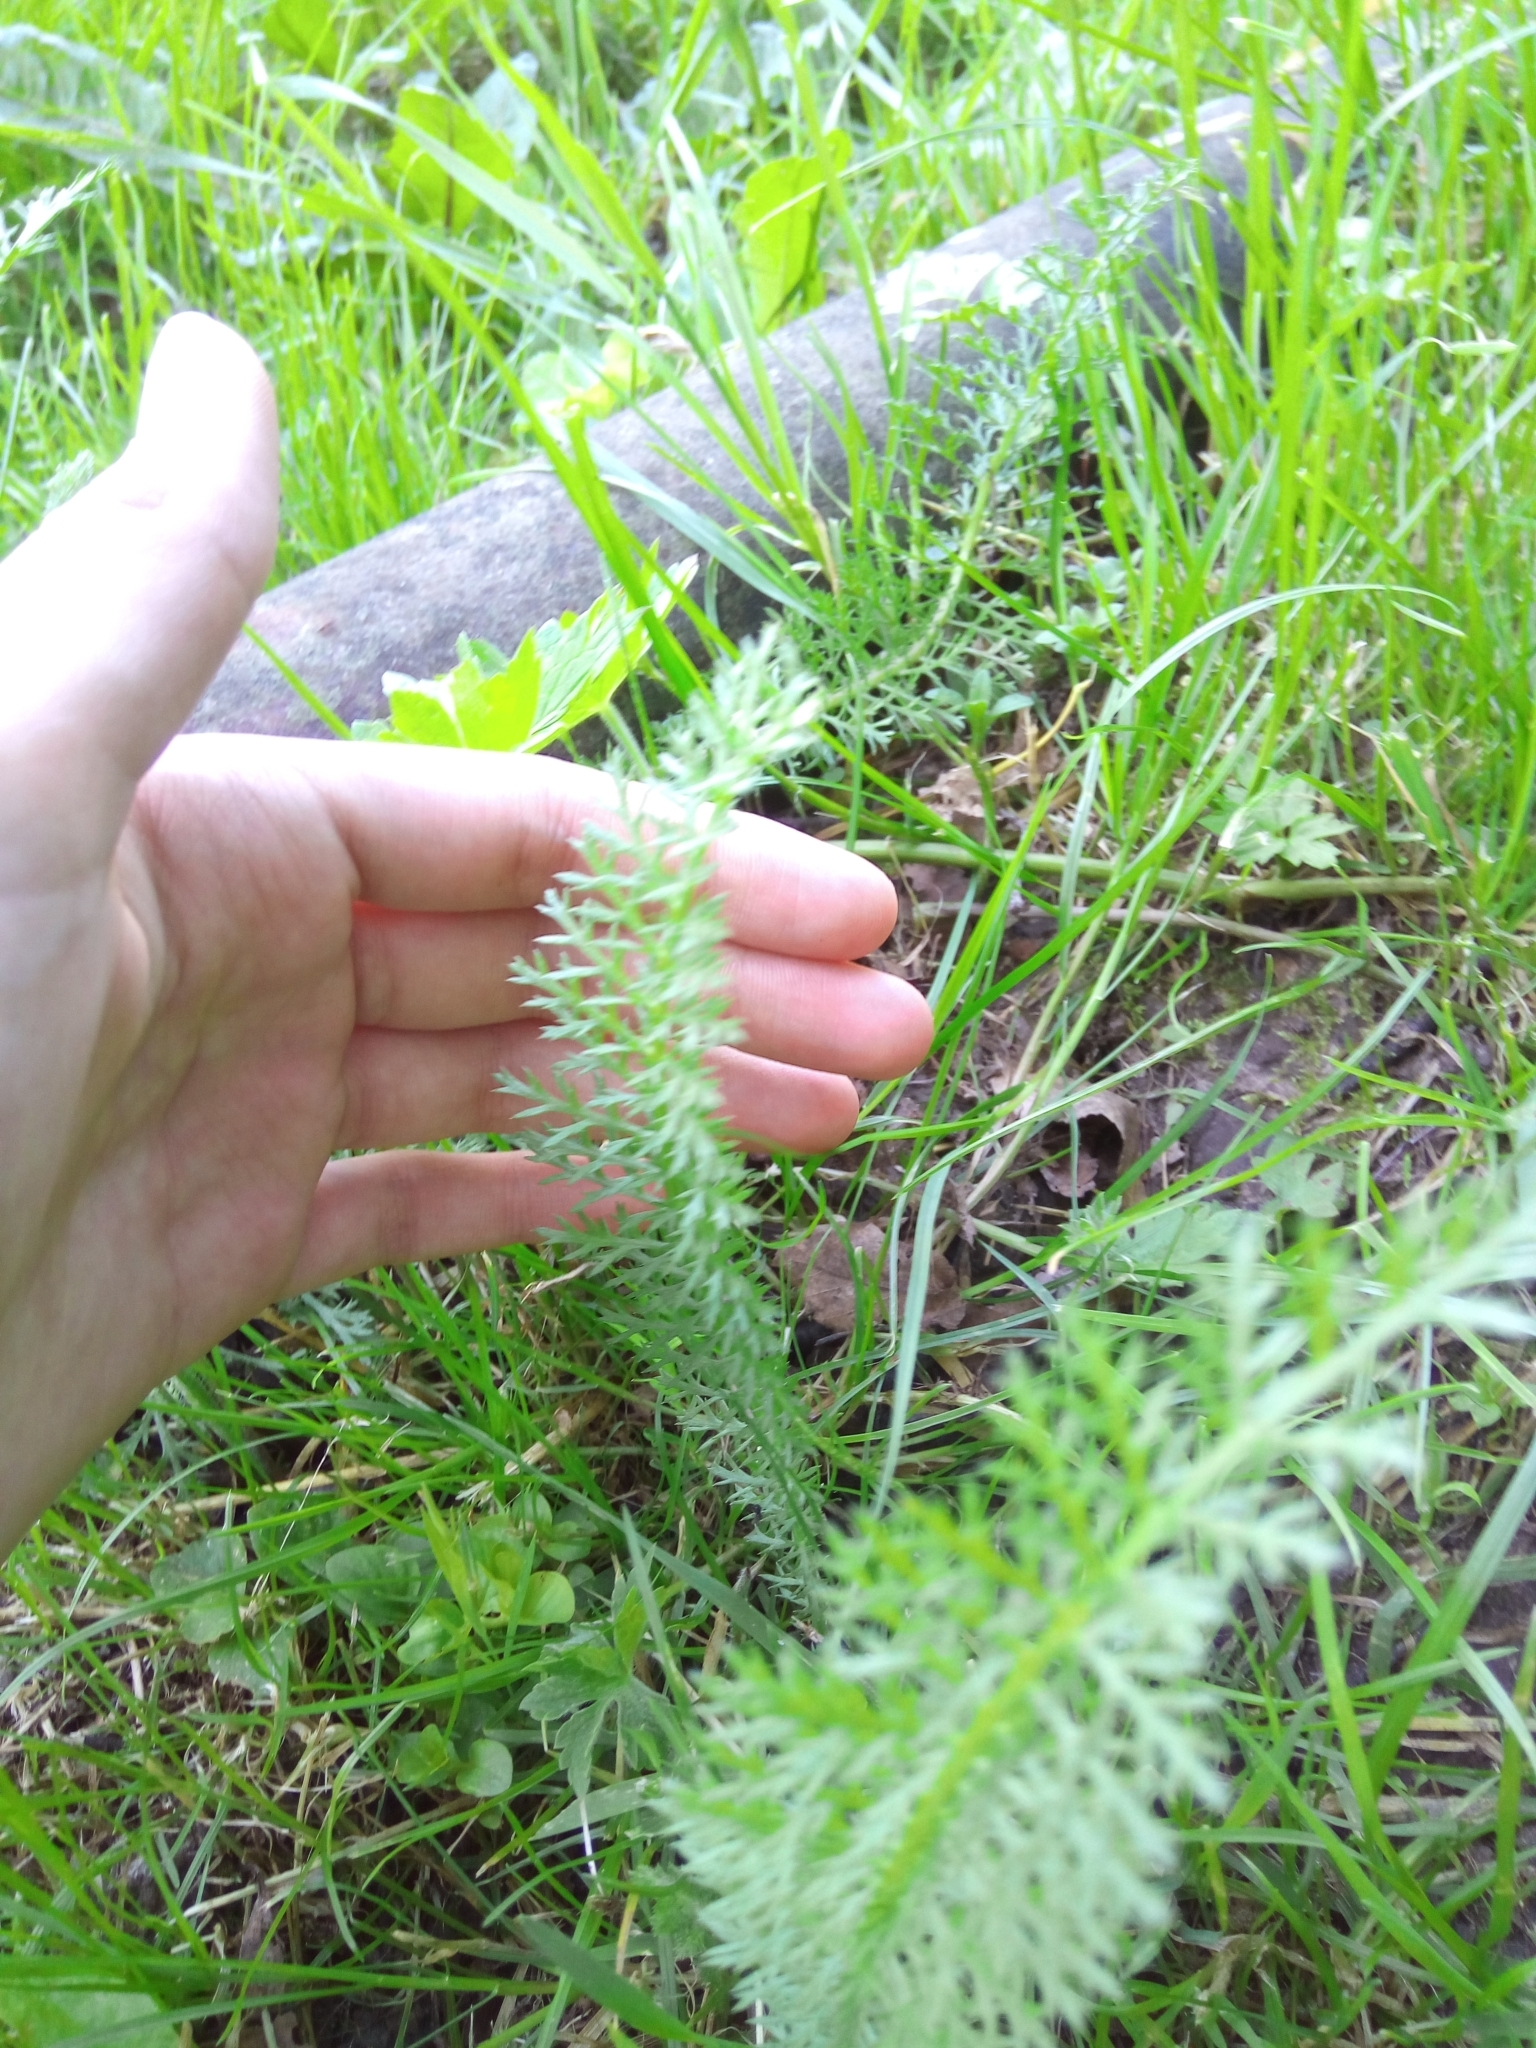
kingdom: Plantae
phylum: Tracheophyta
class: Magnoliopsida
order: Asterales
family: Asteraceae
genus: Achillea
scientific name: Achillea millefolium
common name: Yarrow
